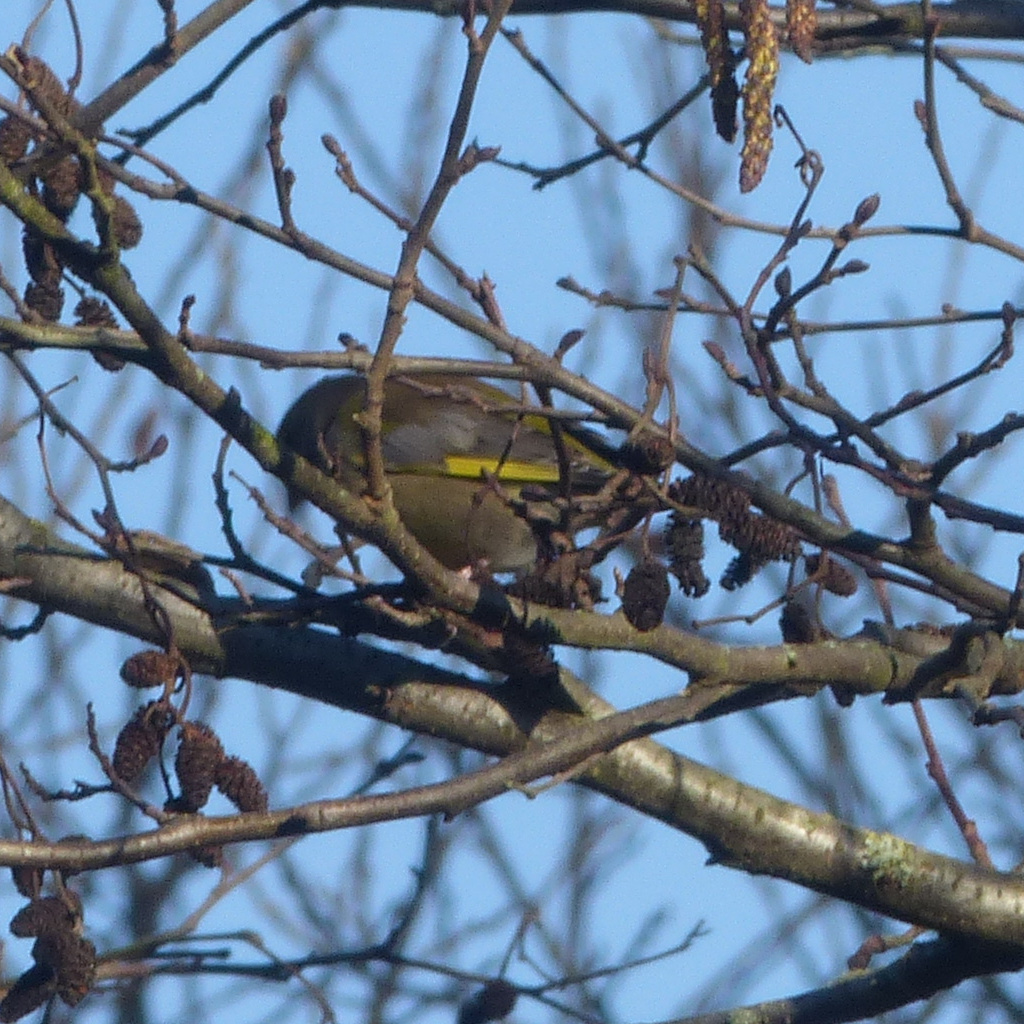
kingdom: Plantae
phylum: Tracheophyta
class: Liliopsida
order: Poales
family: Poaceae
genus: Chloris
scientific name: Chloris chloris
